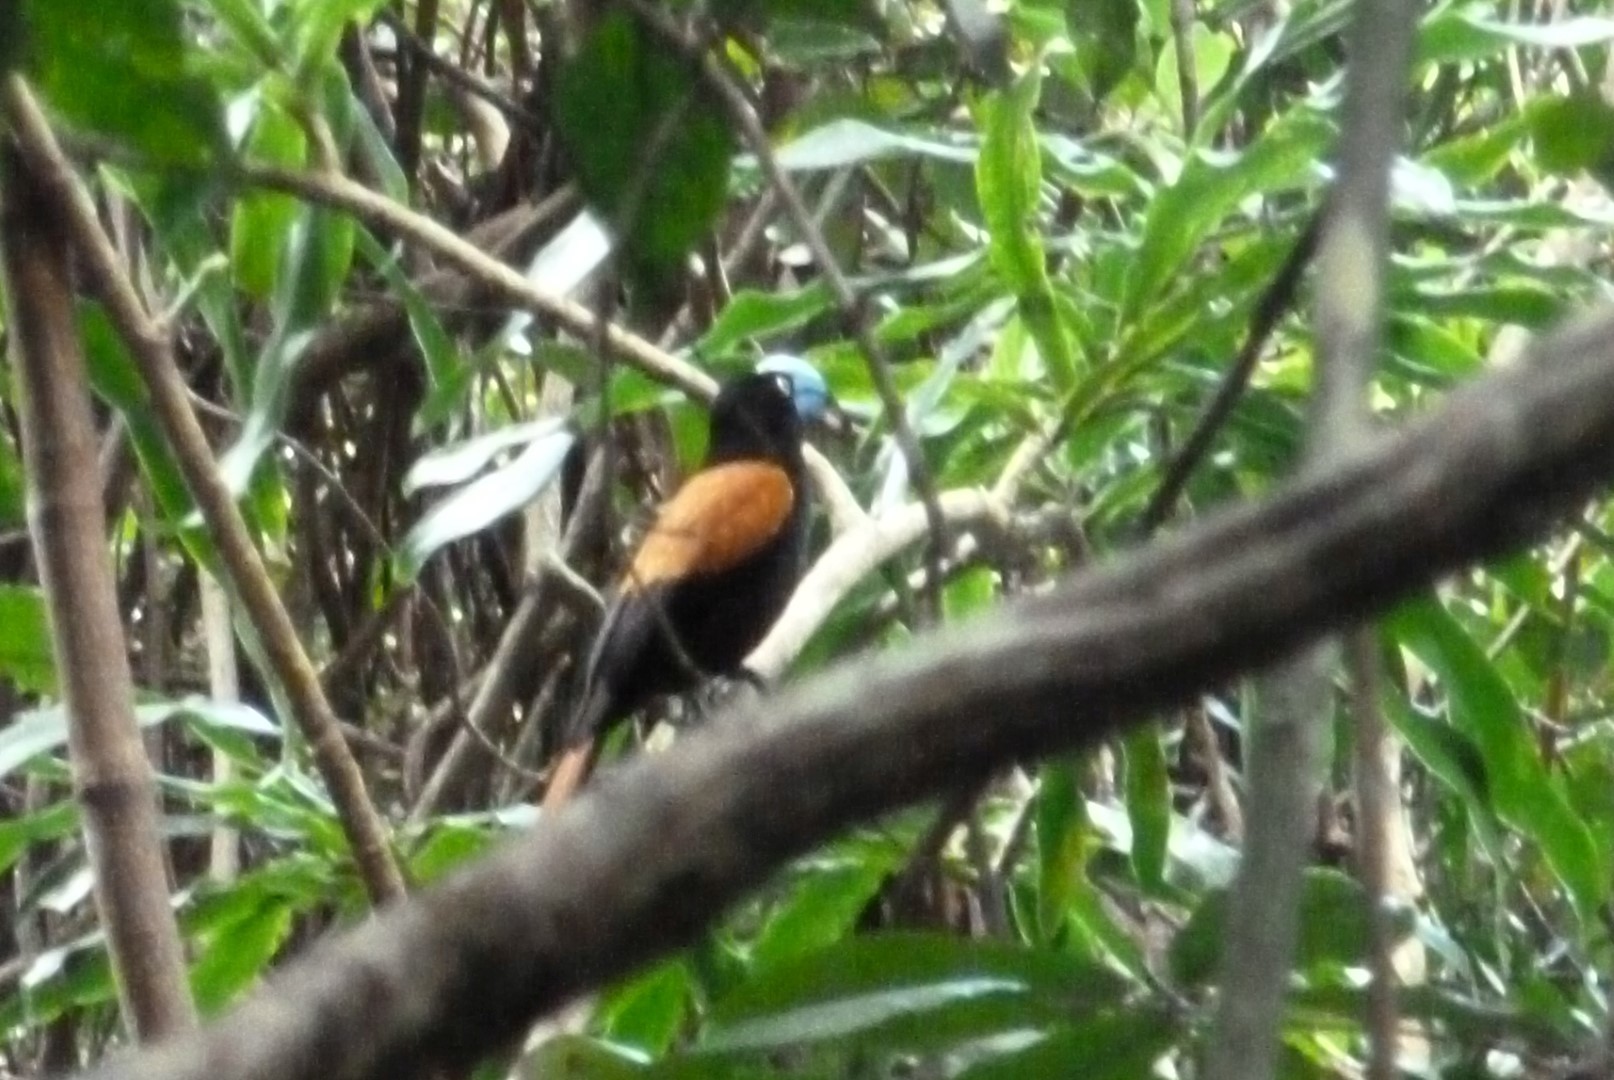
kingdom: Animalia
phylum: Chordata
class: Aves
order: Passeriformes
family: Vangidae
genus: Euryceros
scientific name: Euryceros prevostii
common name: Helmet vanga
